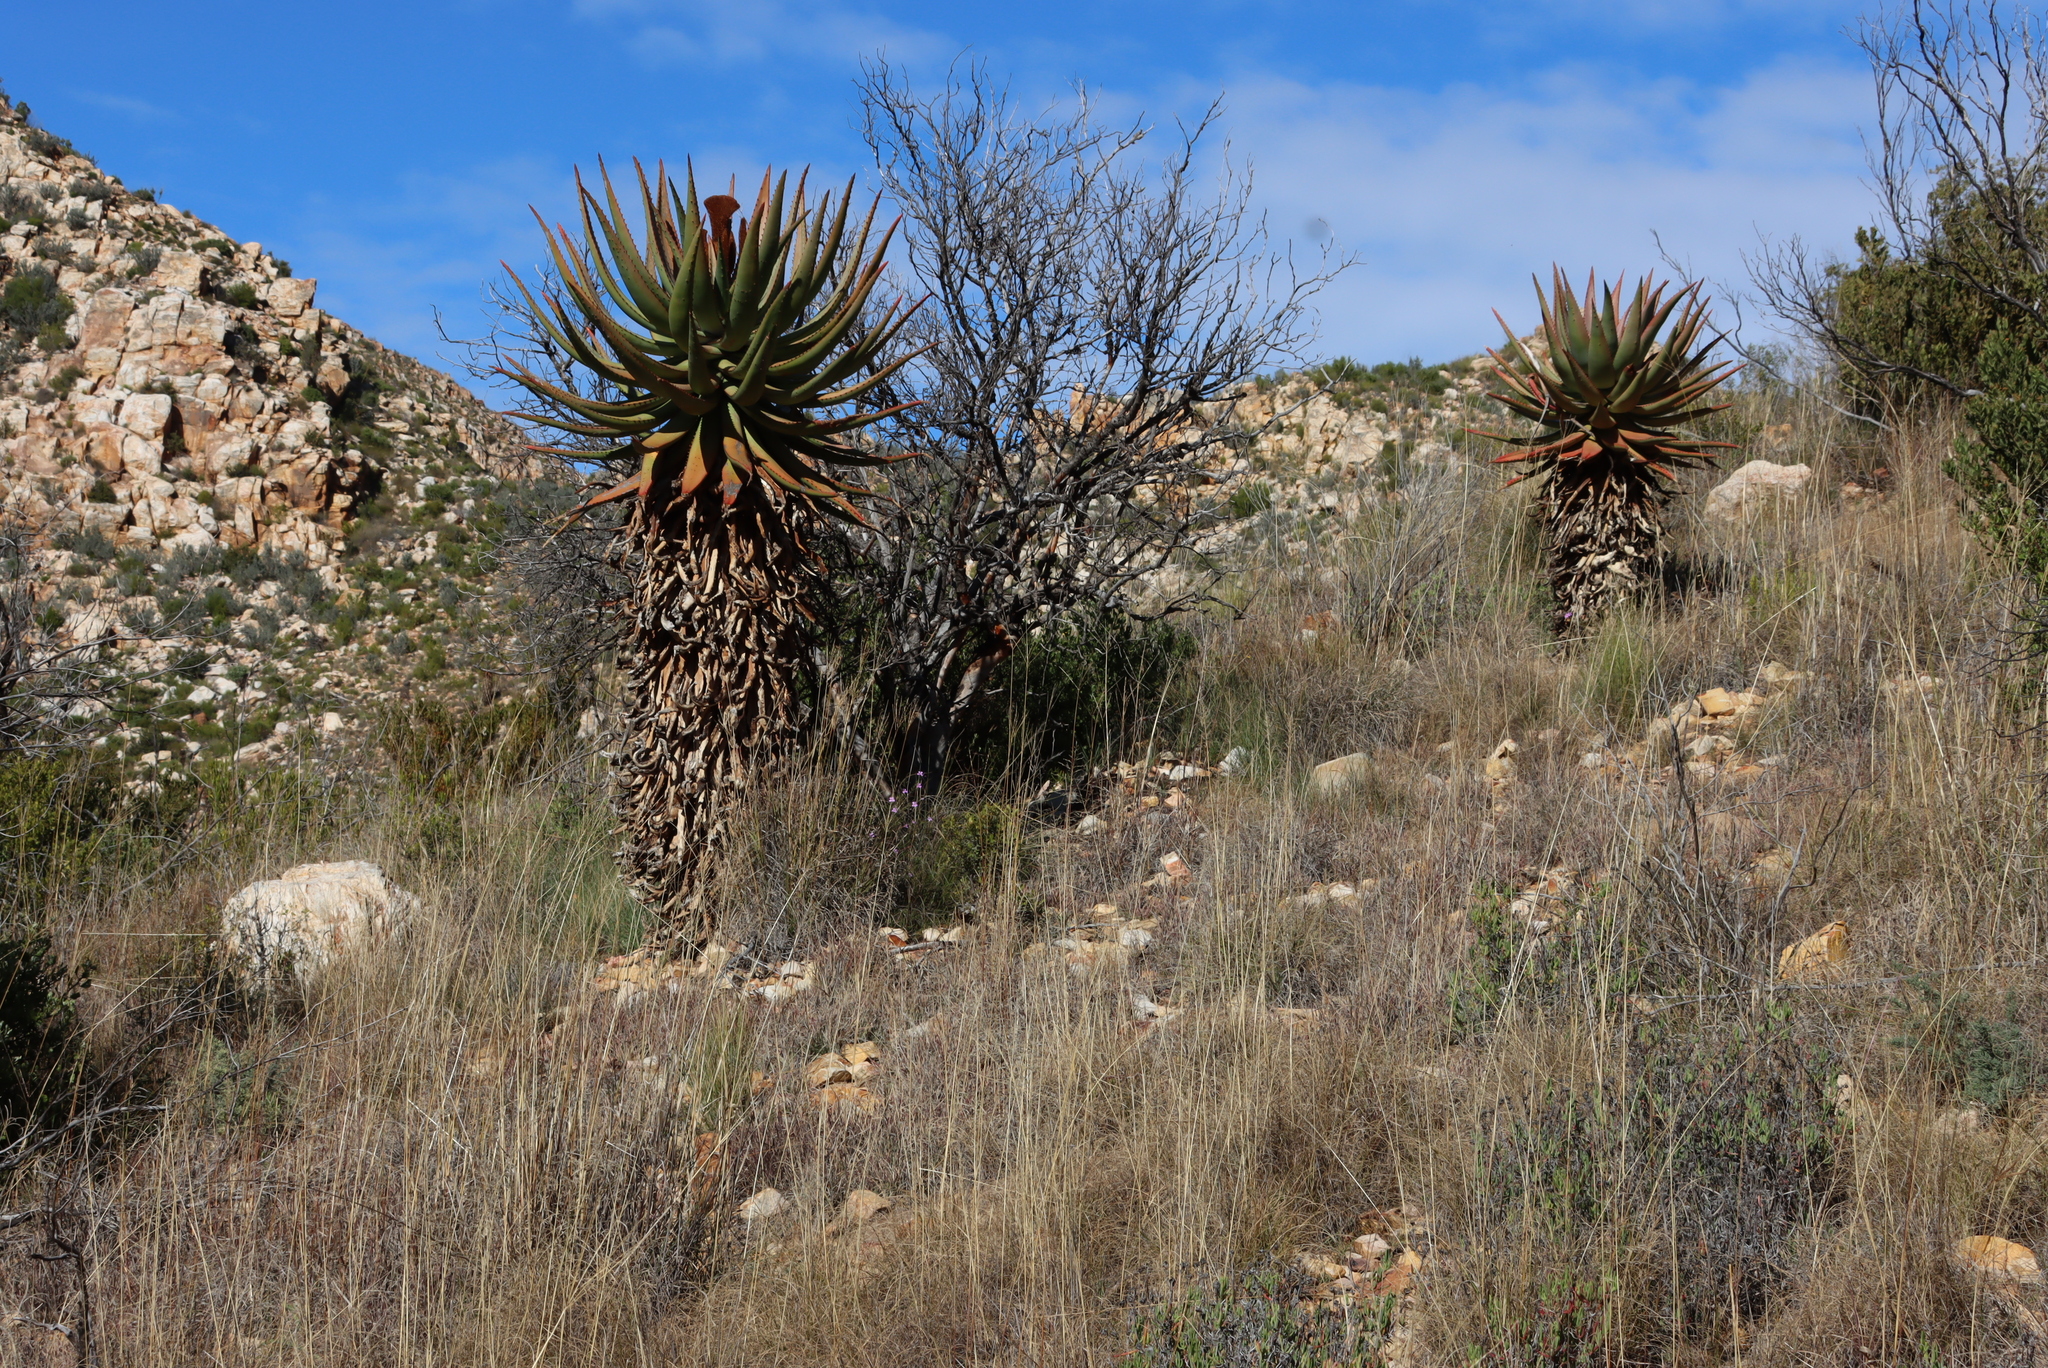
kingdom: Plantae
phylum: Tracheophyta
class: Liliopsida
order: Asparagales
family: Asphodelaceae
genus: Aloe
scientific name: Aloe ferox
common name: Bitter aloe
